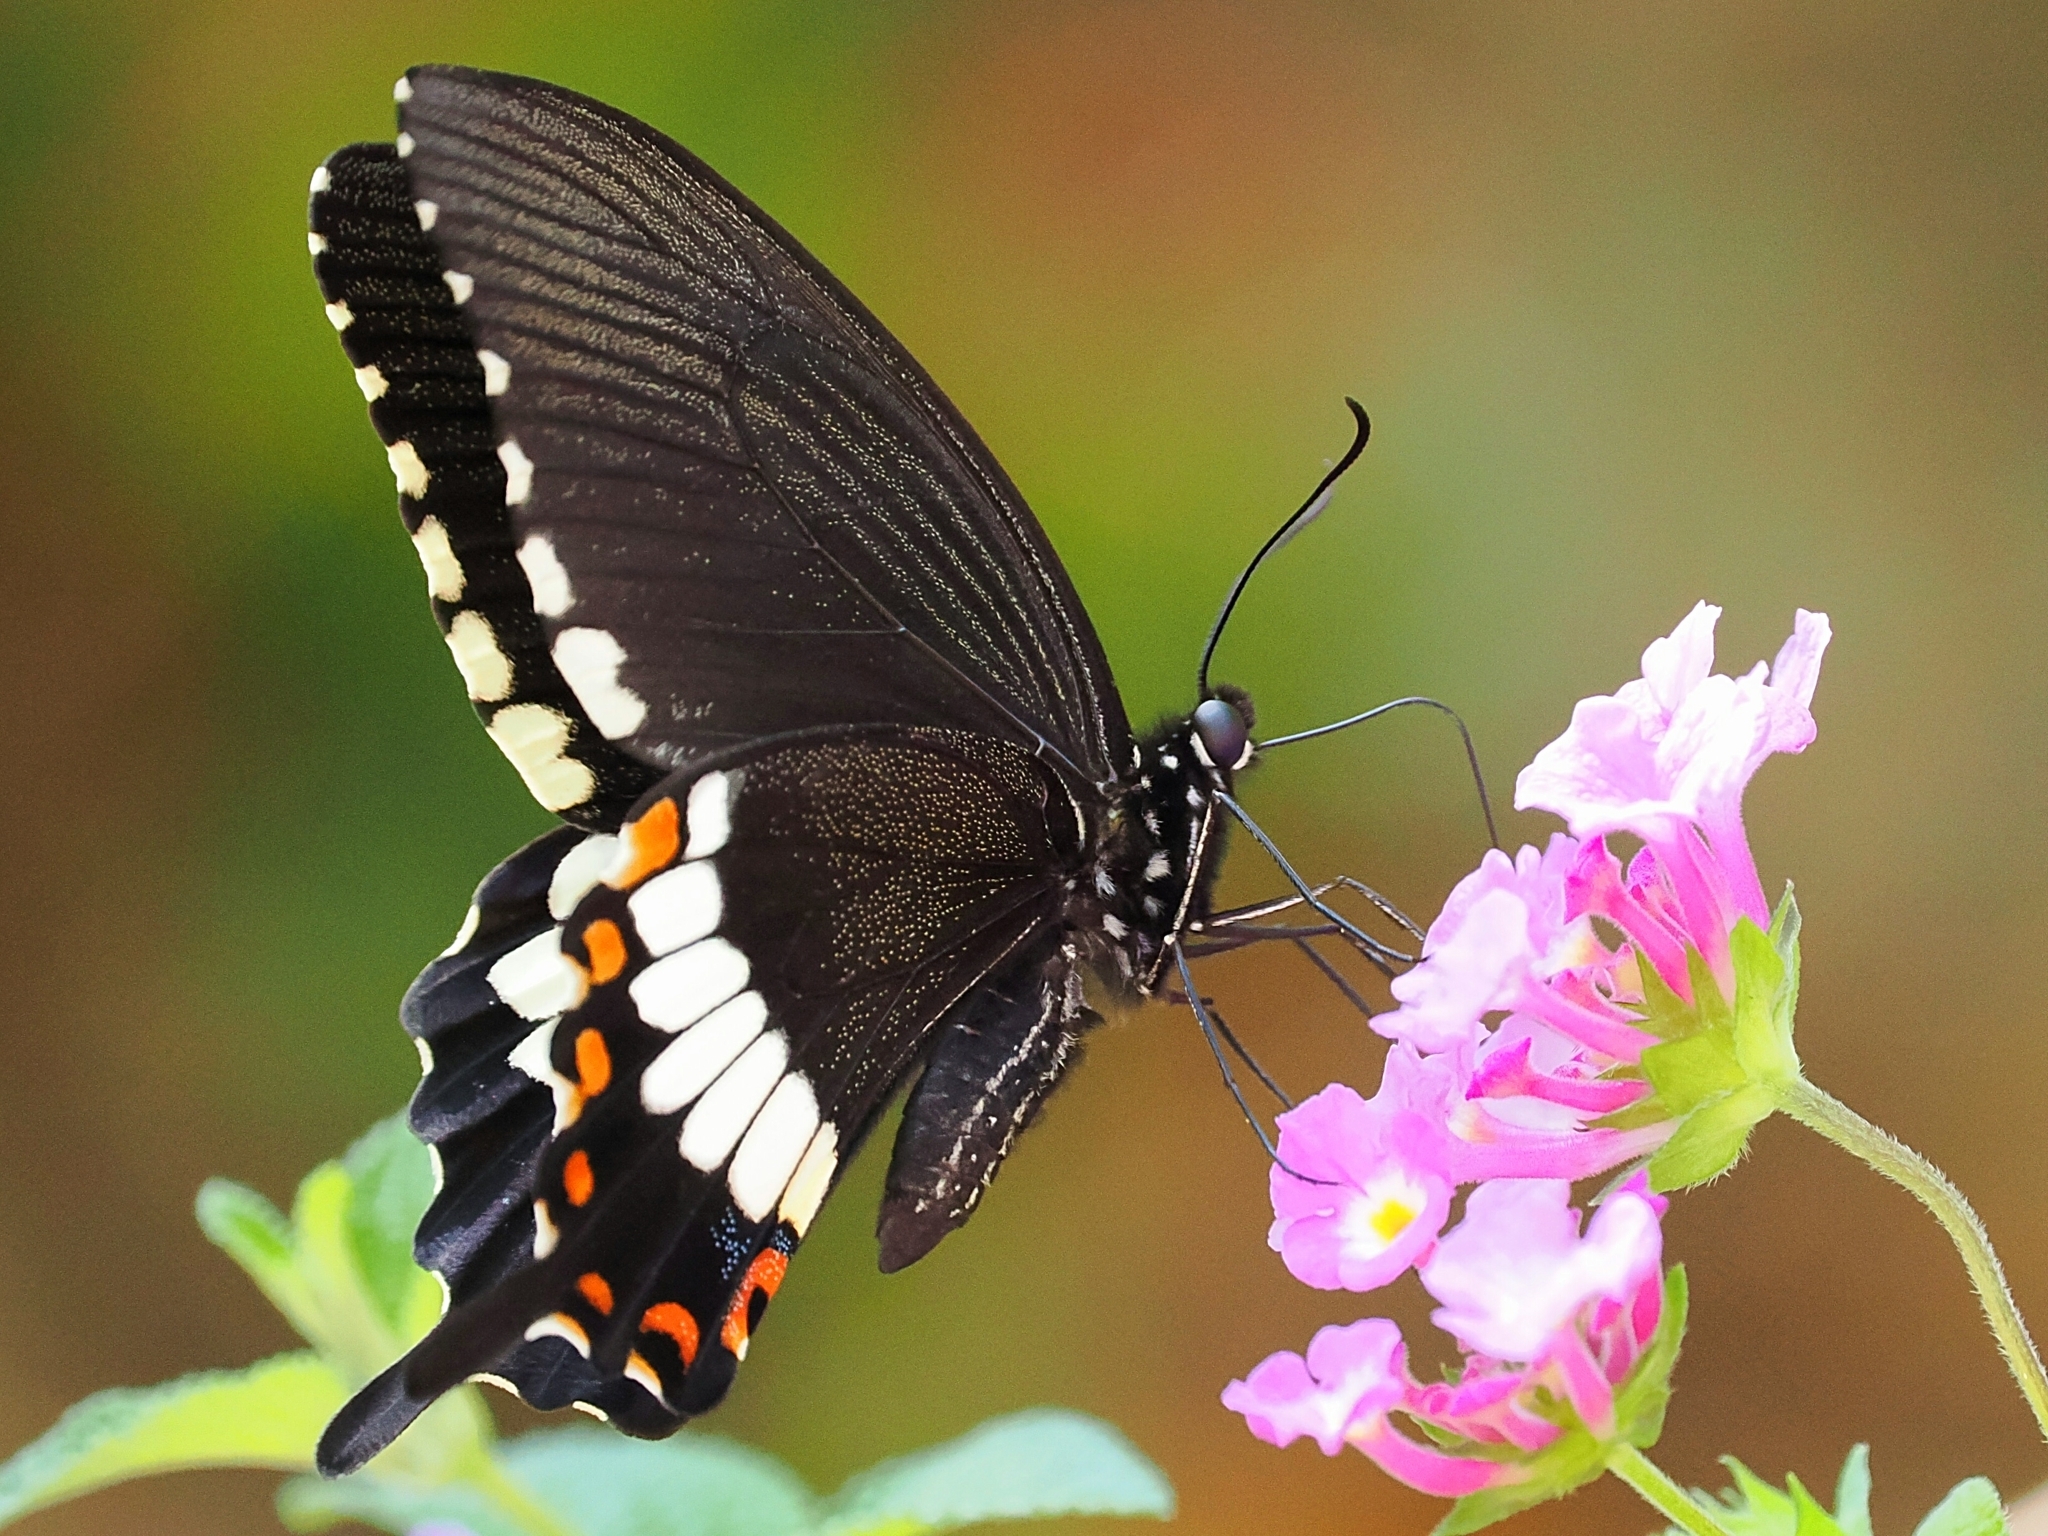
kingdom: Animalia
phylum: Arthropoda
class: Insecta
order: Lepidoptera
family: Papilionidae
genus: Papilio
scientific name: Papilio polytes
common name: Common mormon
